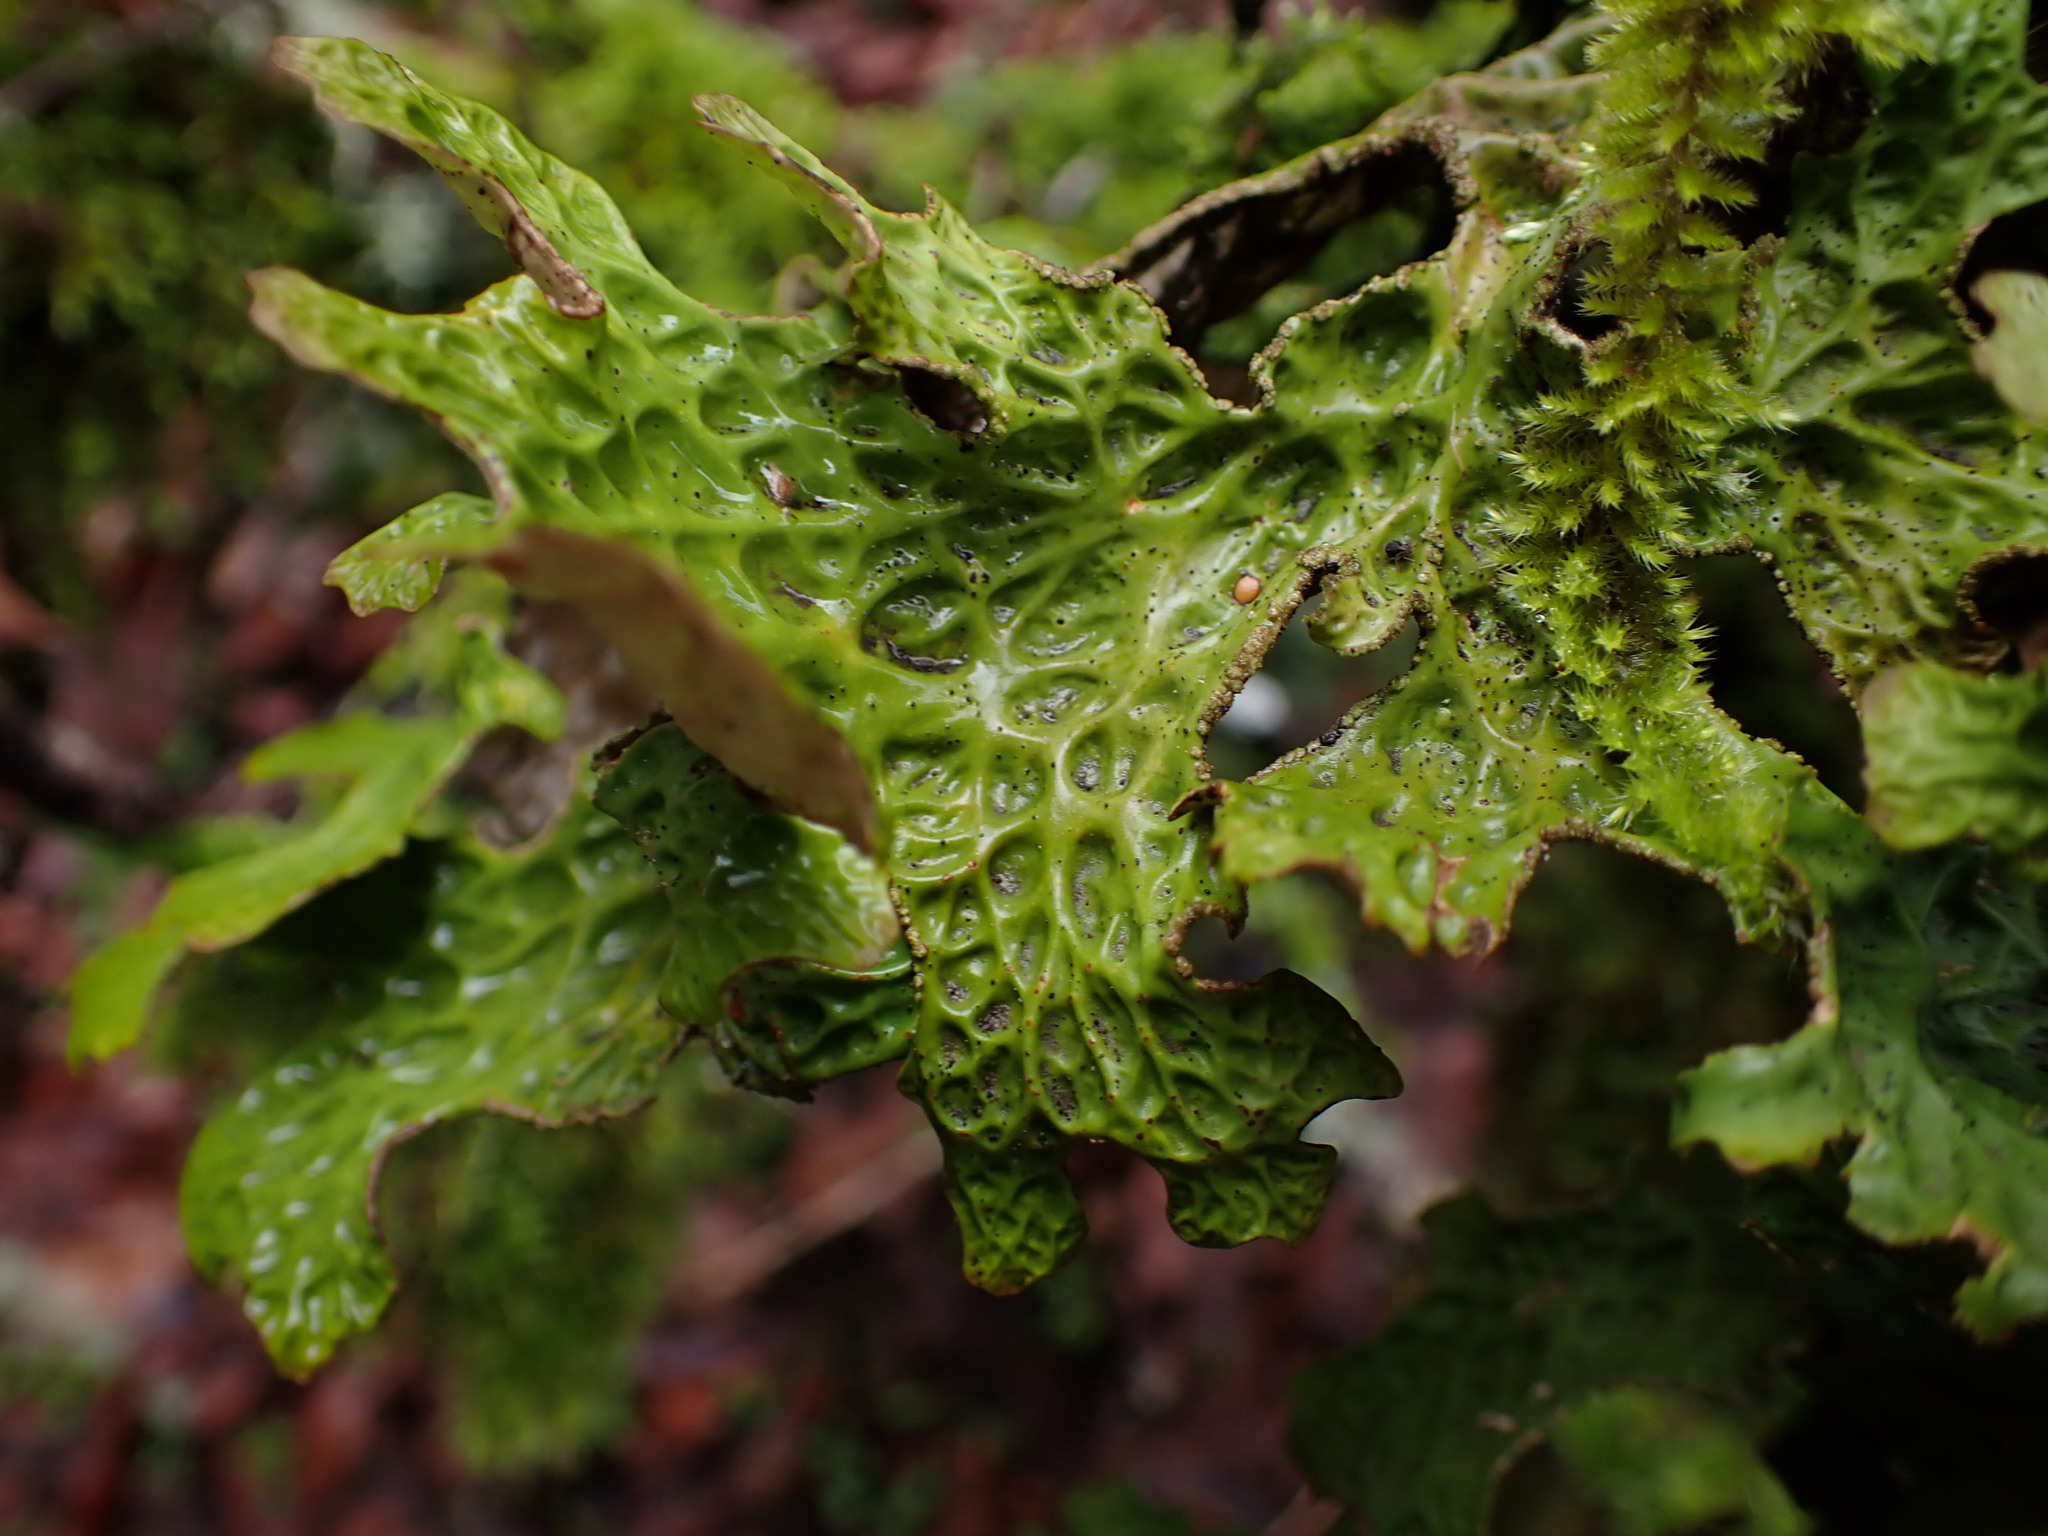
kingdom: Fungi
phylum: Ascomycota
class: Lecanoromycetes
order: Peltigerales
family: Lobariaceae
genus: Lobaria
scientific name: Lobaria pulmonaria
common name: Lungwort
